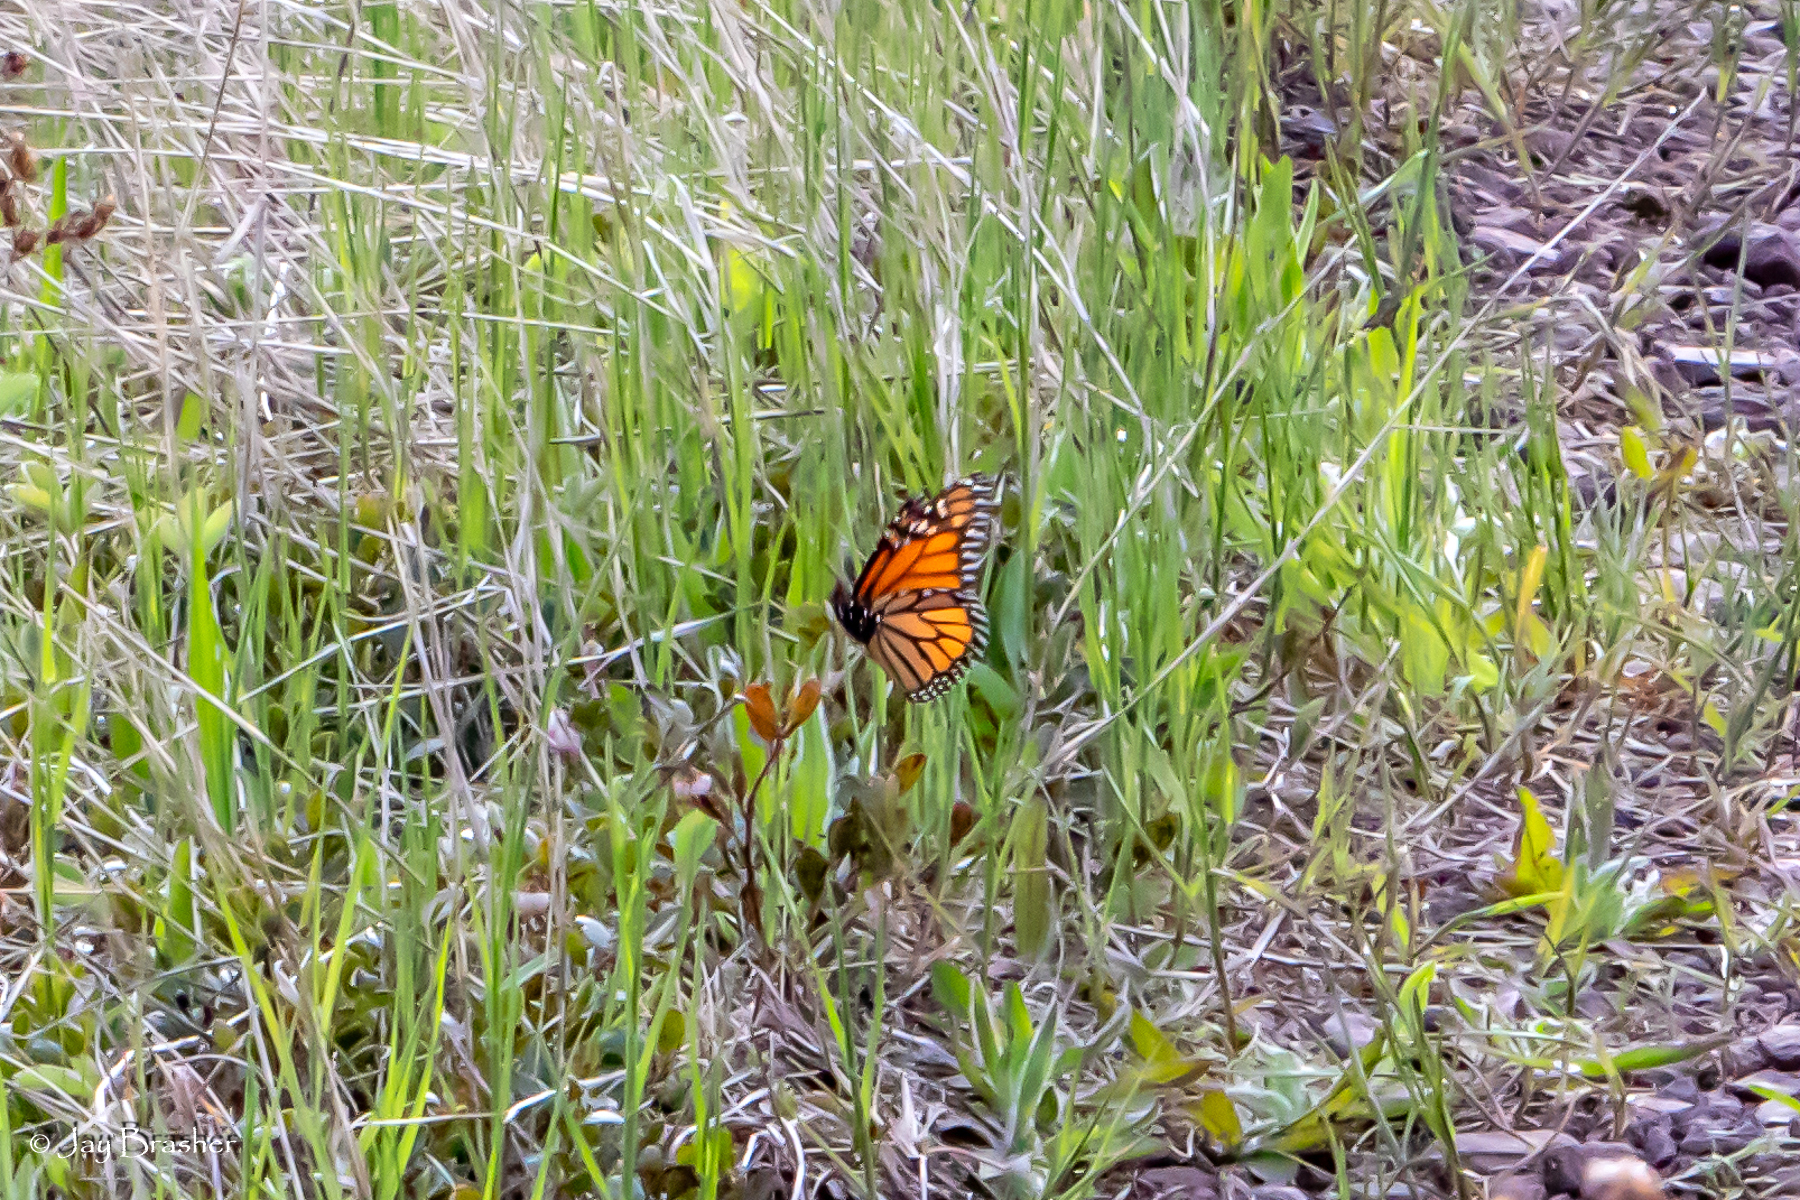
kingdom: Animalia
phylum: Arthropoda
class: Insecta
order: Lepidoptera
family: Nymphalidae
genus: Danaus
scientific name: Danaus plexippus
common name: Monarch
